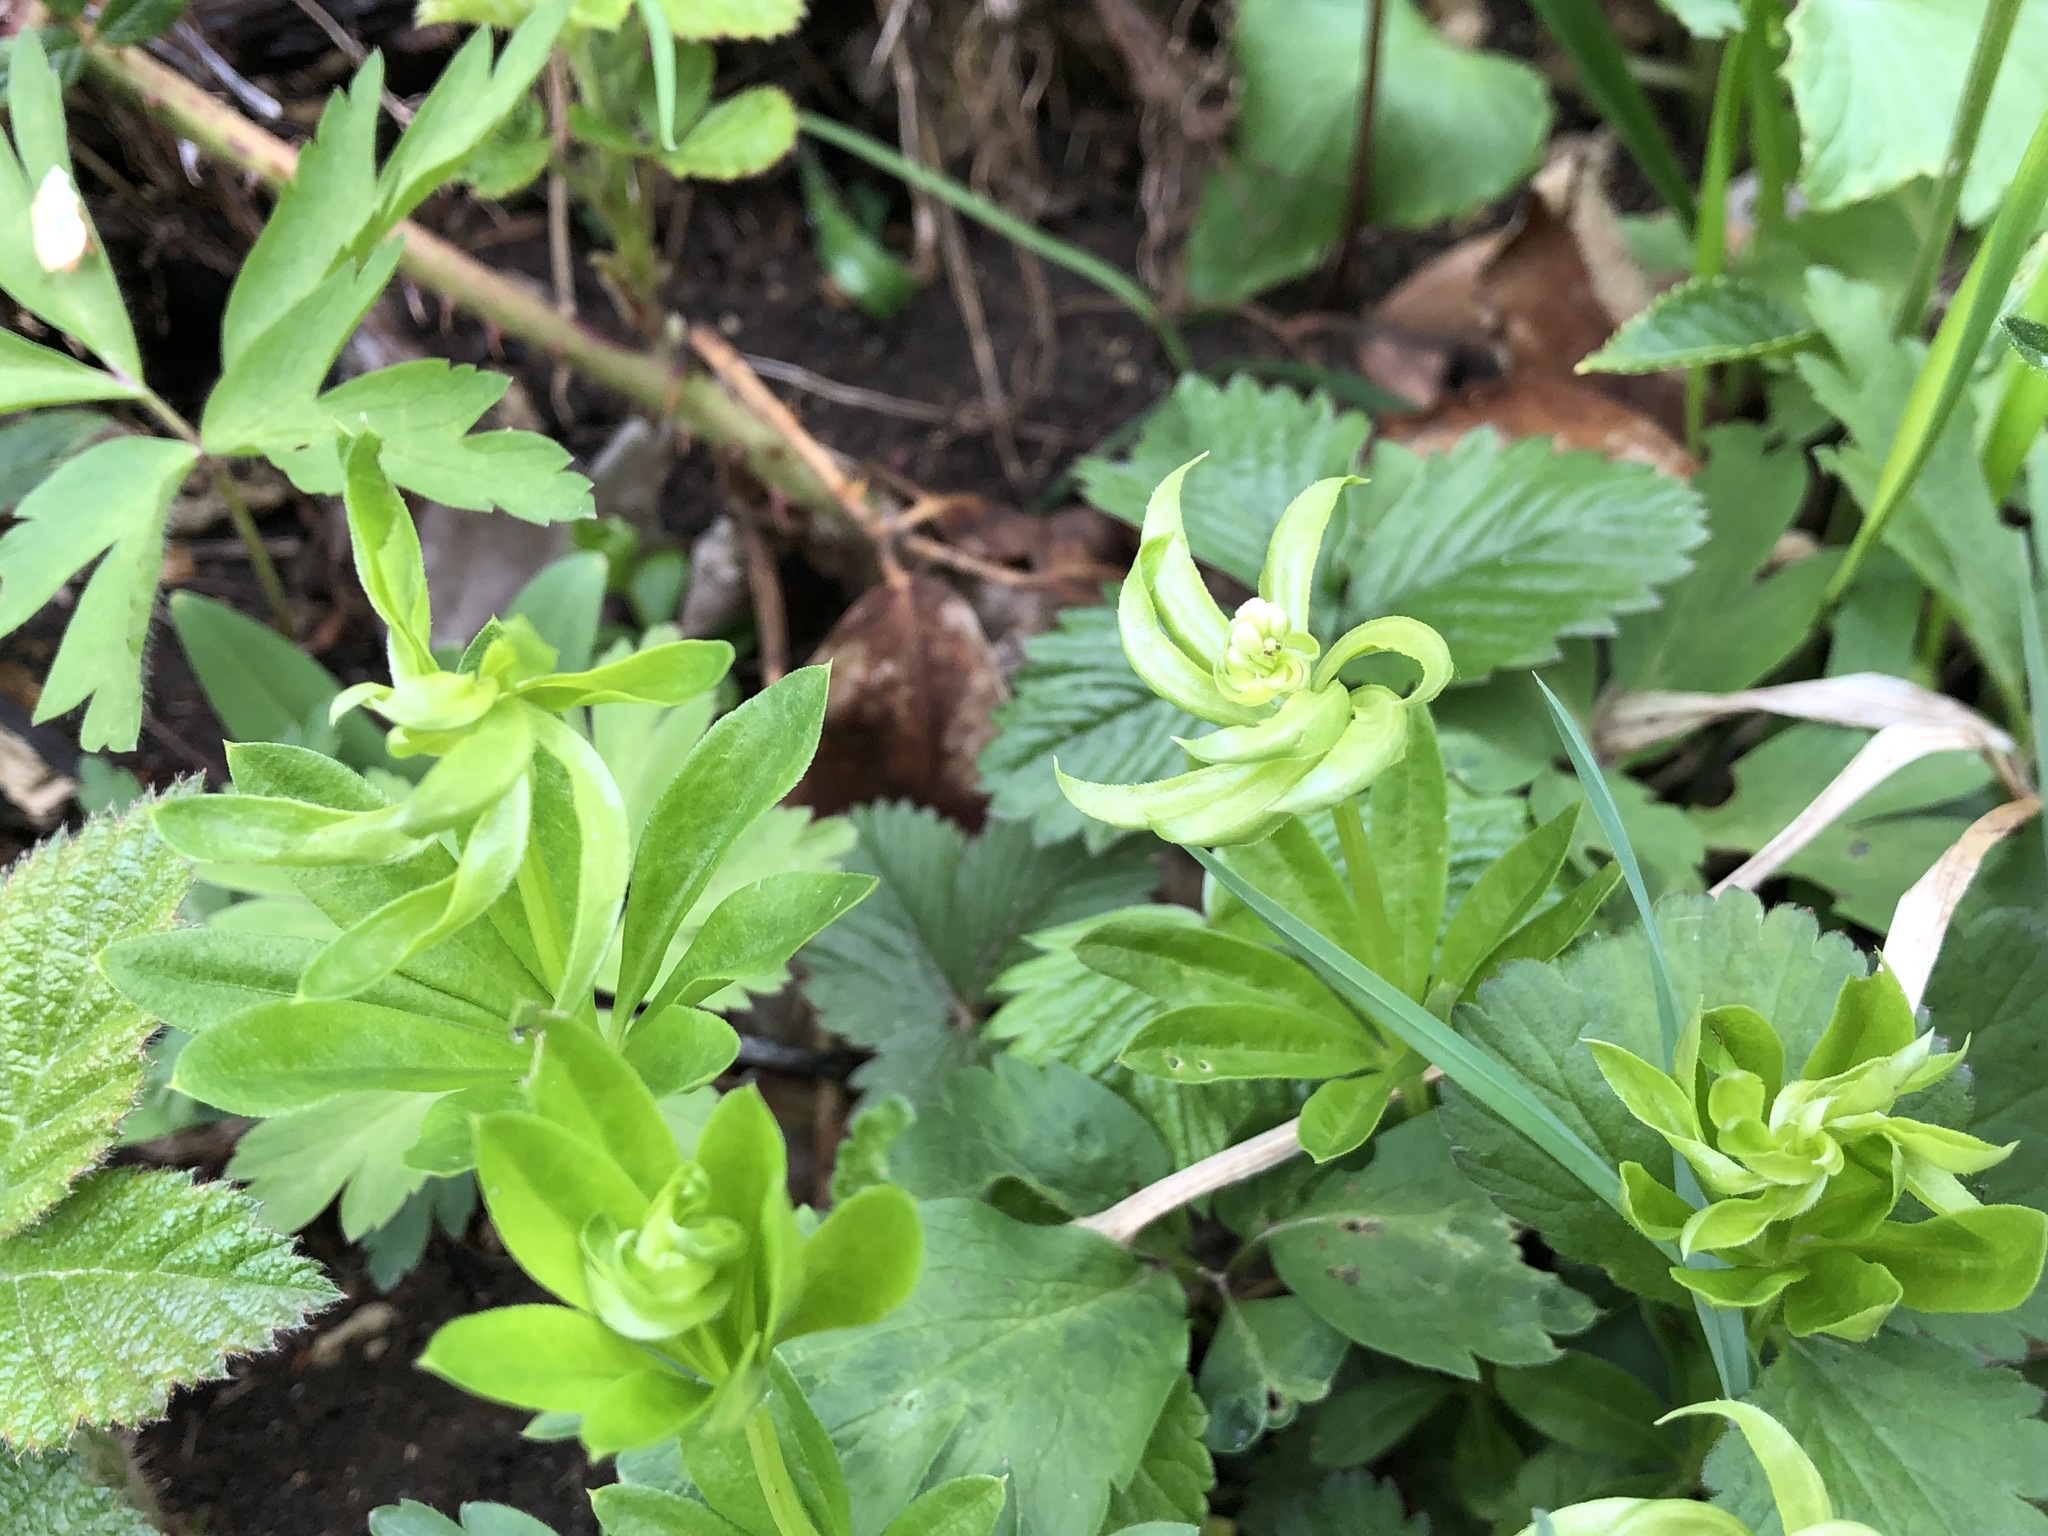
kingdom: Plantae
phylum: Tracheophyta
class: Magnoliopsida
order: Gentianales
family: Rubiaceae
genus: Galium
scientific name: Galium odoratum
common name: Sweet woodruff
